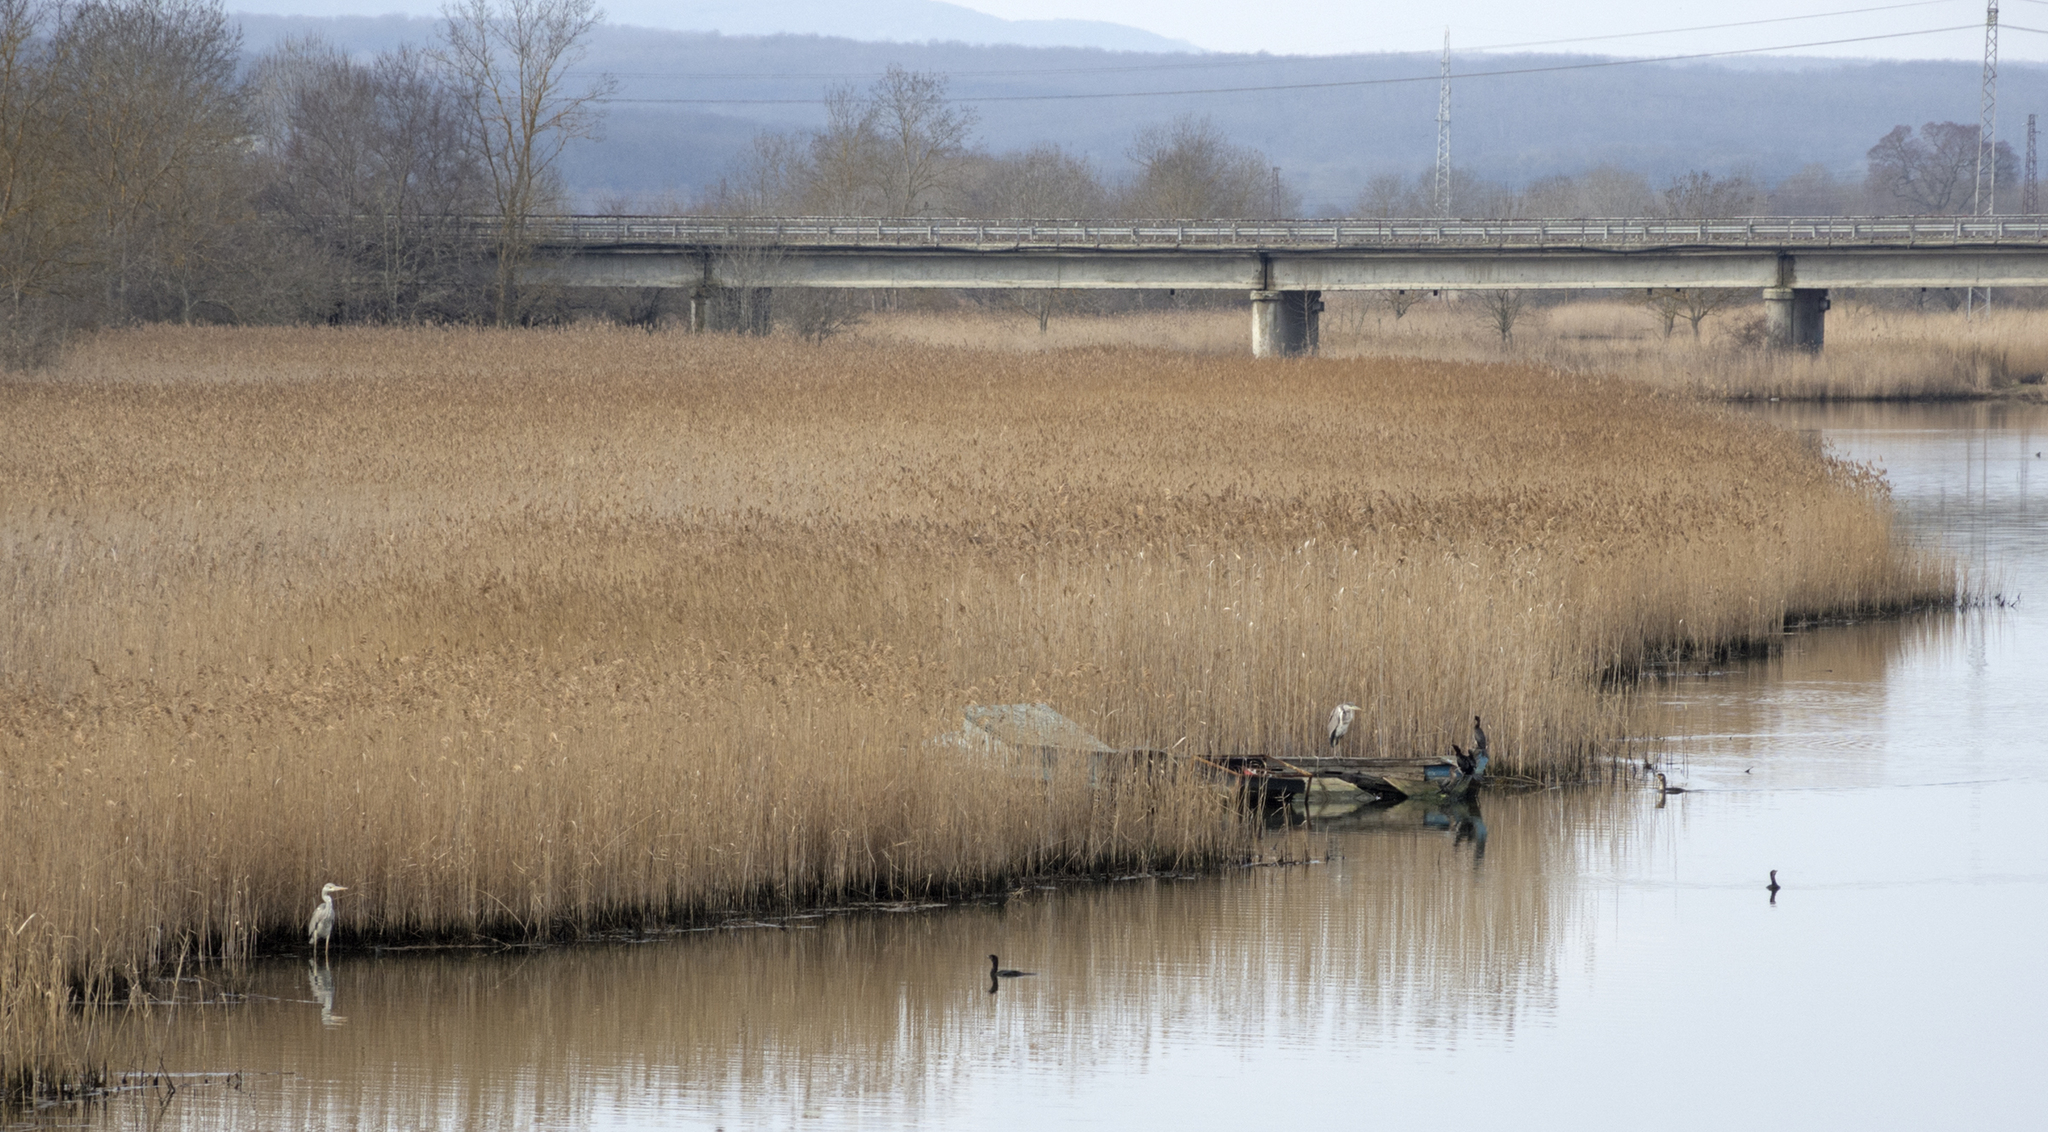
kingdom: Animalia
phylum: Chordata
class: Aves
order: Pelecaniformes
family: Ardeidae
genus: Ardea
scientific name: Ardea cinerea
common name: Grey heron
